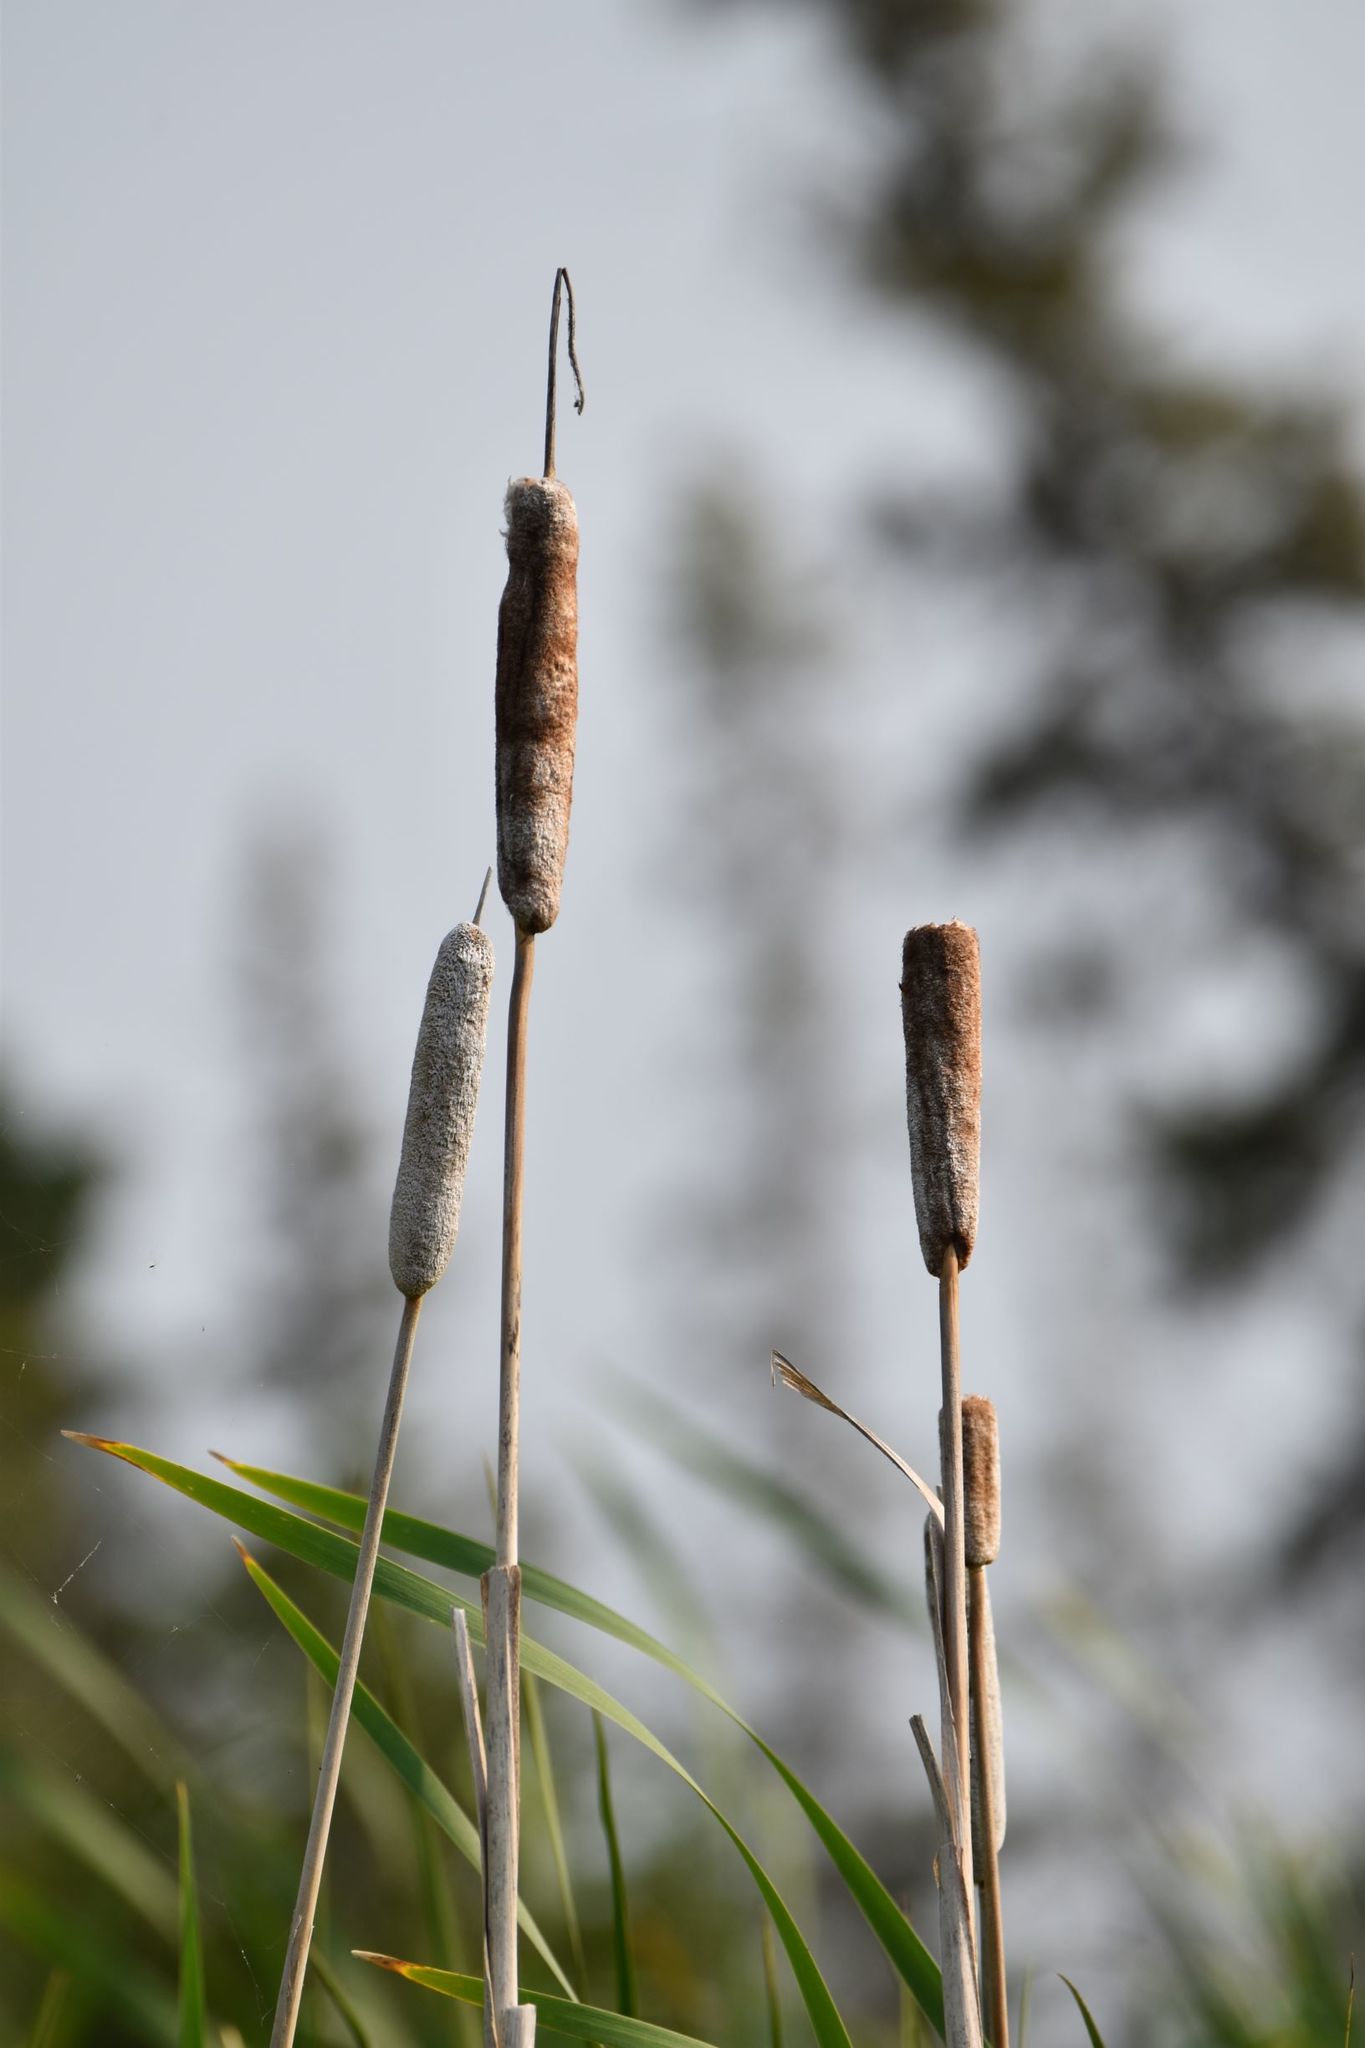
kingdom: Plantae
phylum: Tracheophyta
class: Liliopsida
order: Poales
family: Typhaceae
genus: Typha
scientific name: Typha latifolia
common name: Broadleaf cattail
